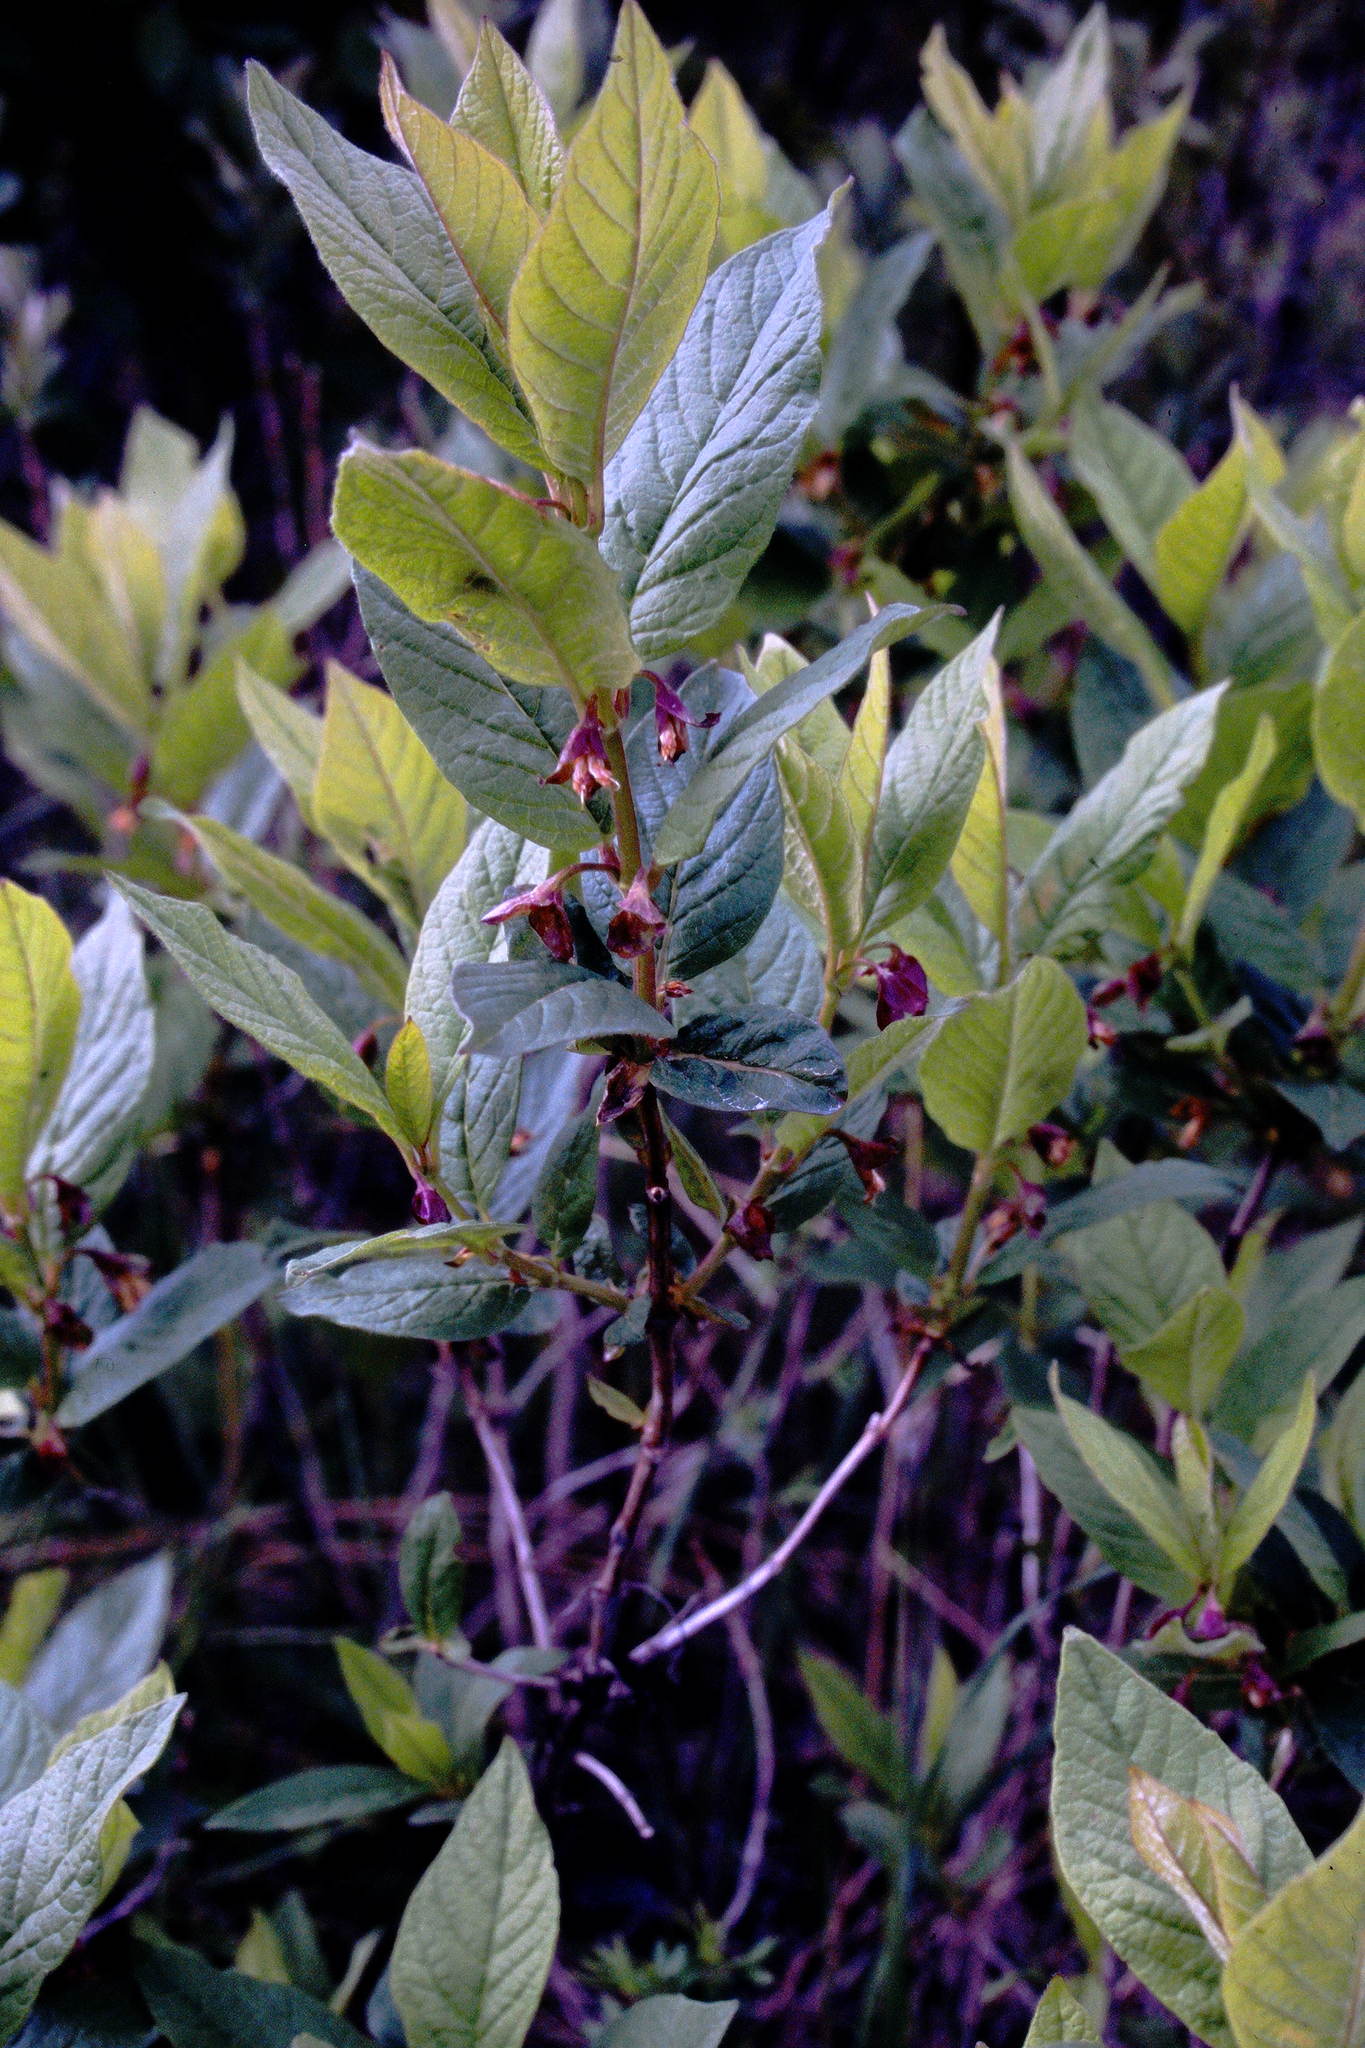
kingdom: Plantae
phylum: Tracheophyta
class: Magnoliopsida
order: Dipsacales
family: Caprifoliaceae
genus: Lonicera
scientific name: Lonicera involucrata
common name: Californian honeysuckle
